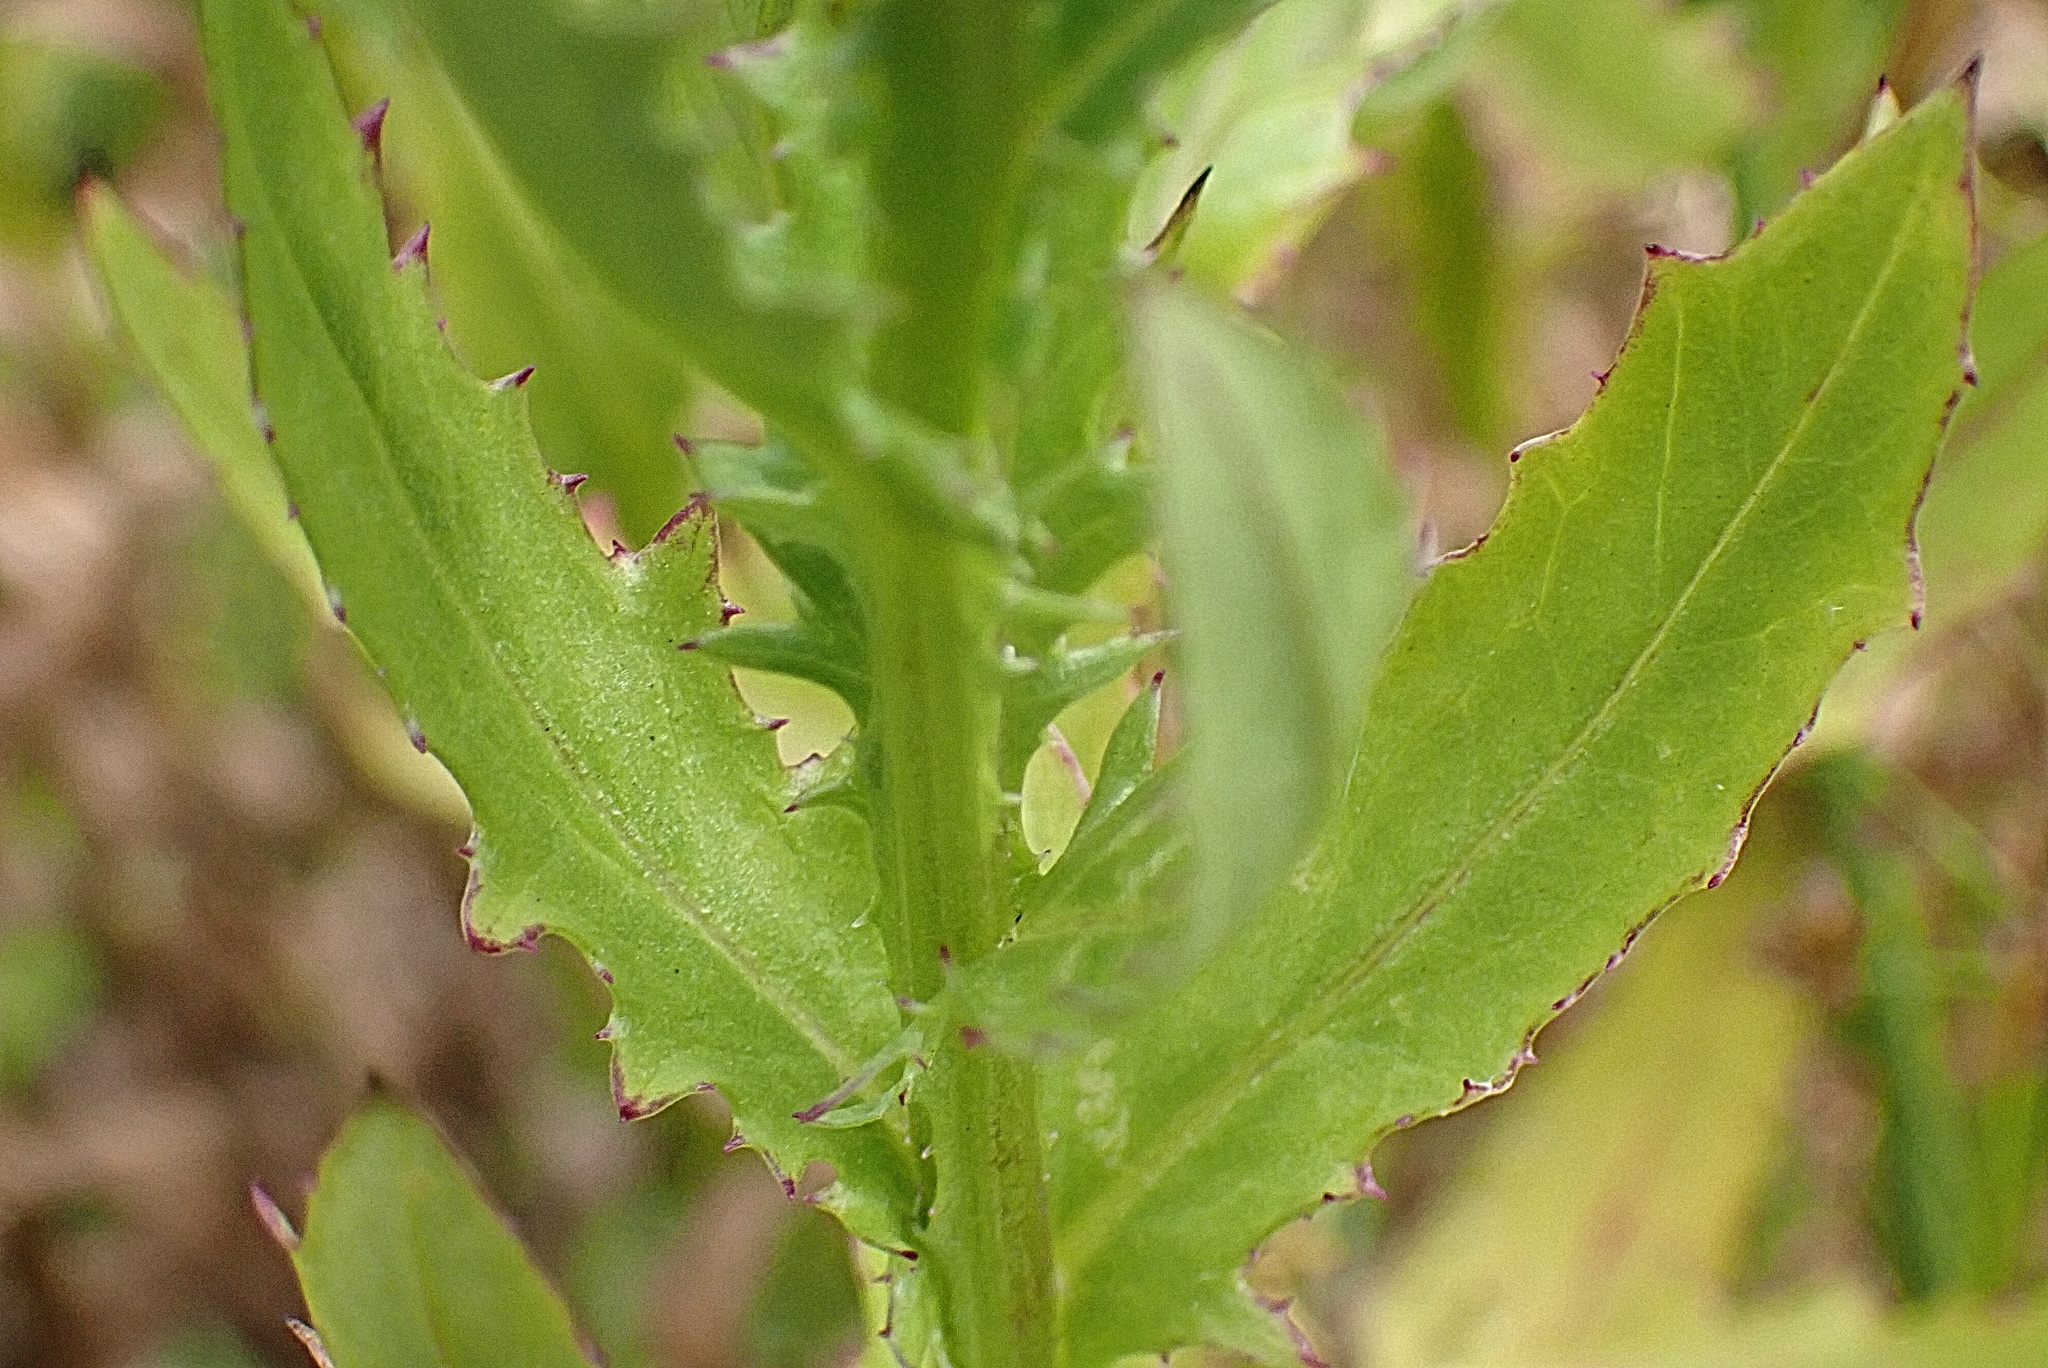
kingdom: Plantae
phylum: Tracheophyta
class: Magnoliopsida
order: Asterales
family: Asteraceae
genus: Senecio
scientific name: Senecio glastifolius
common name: Woad-leaved ragwort
